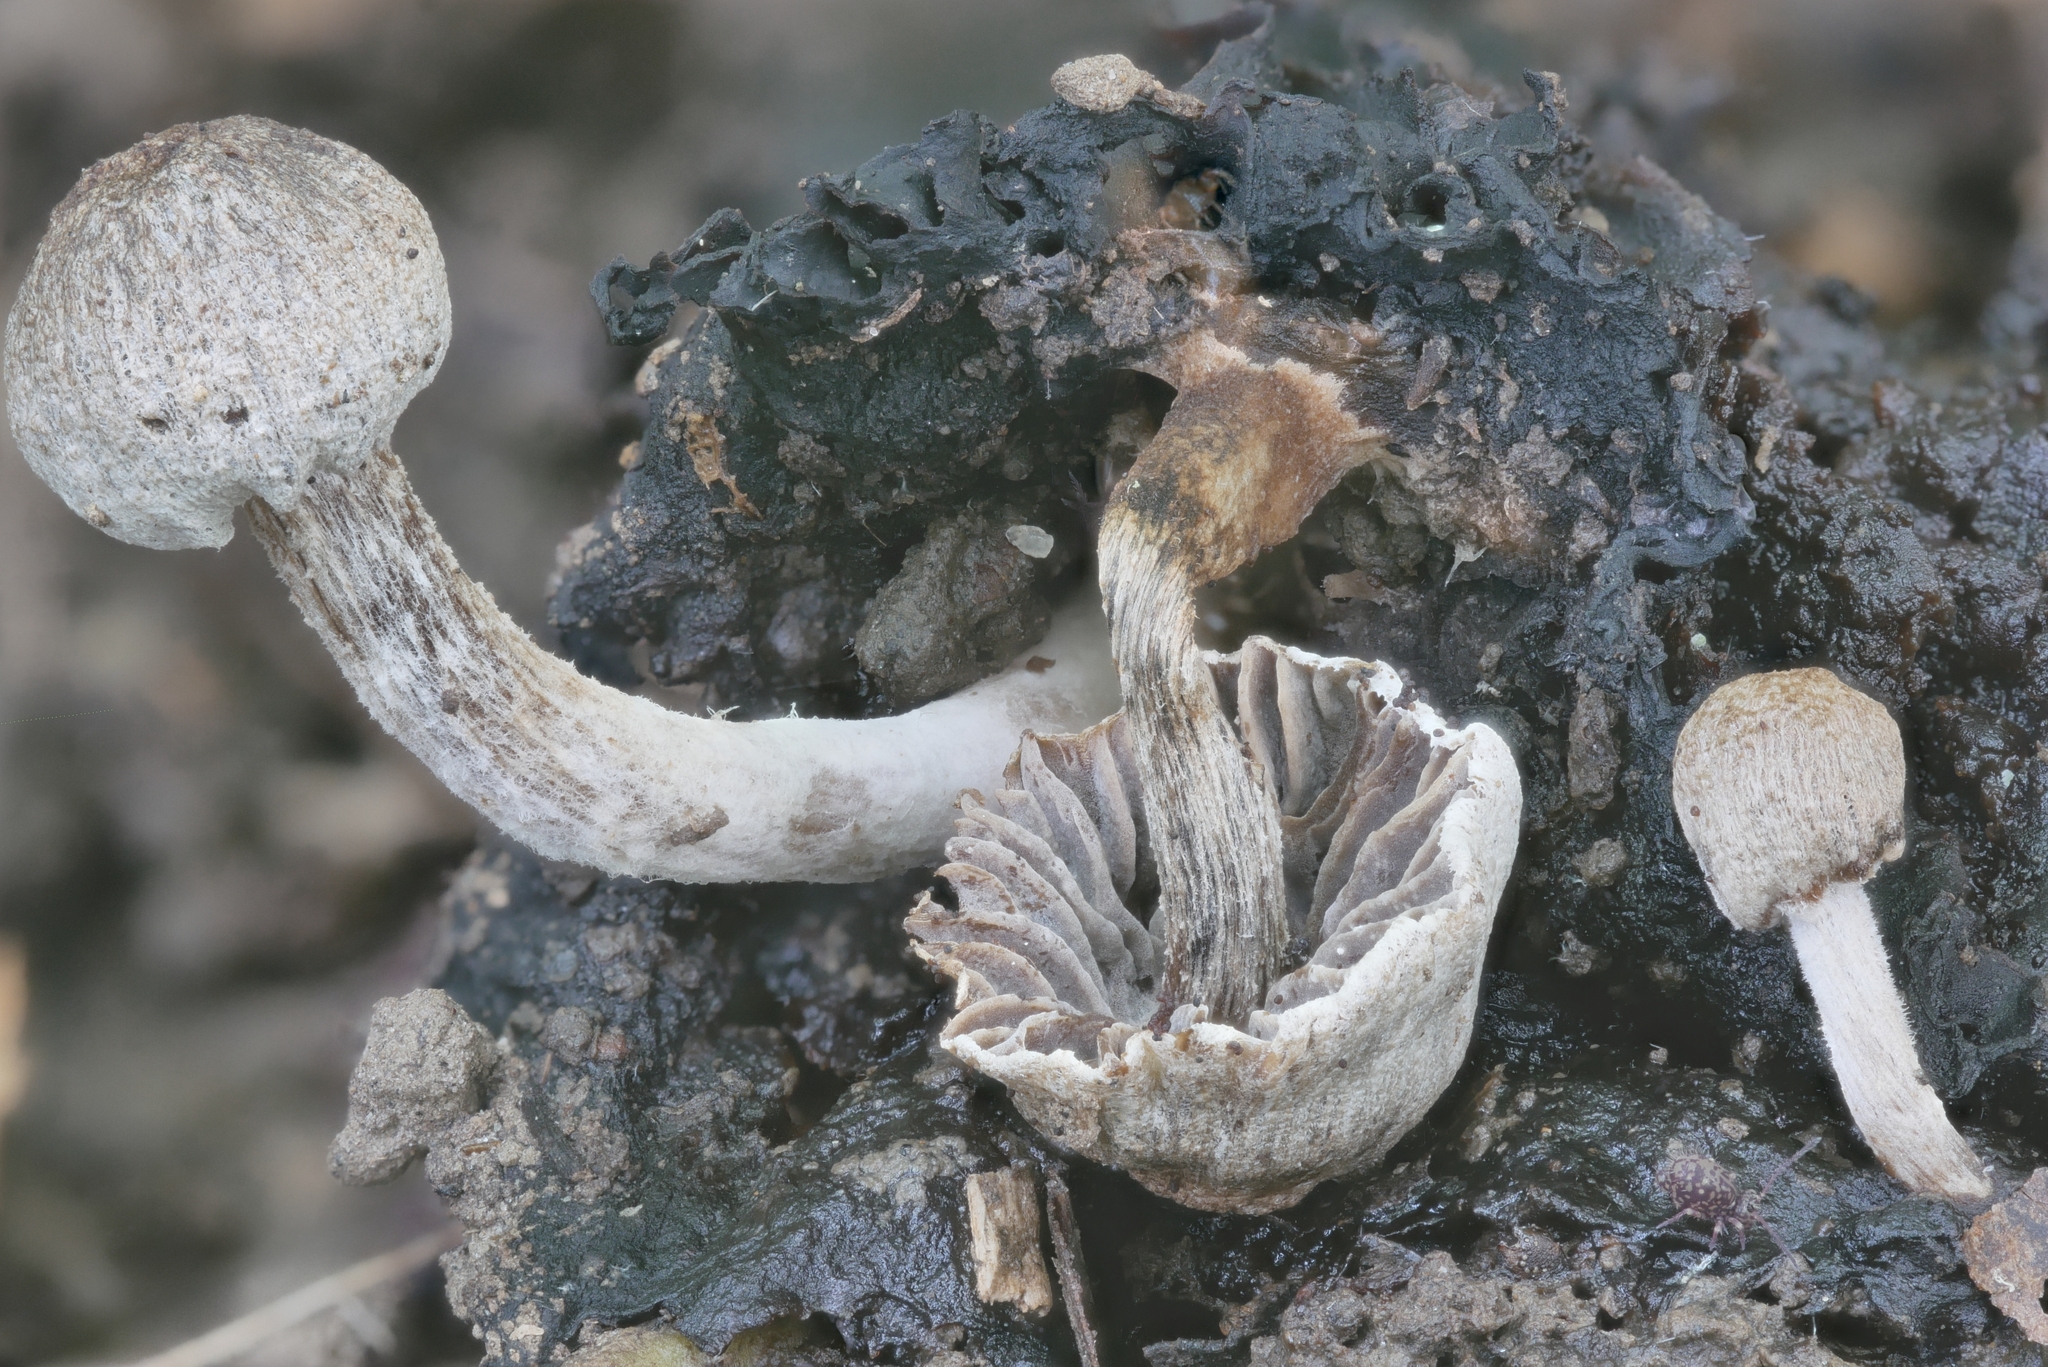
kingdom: Fungi
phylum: Basidiomycota
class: Agaricomycetes
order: Agaricales
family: Lyophyllaceae
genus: Asterophora
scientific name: Asterophora parasitica
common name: Silky piggyback
